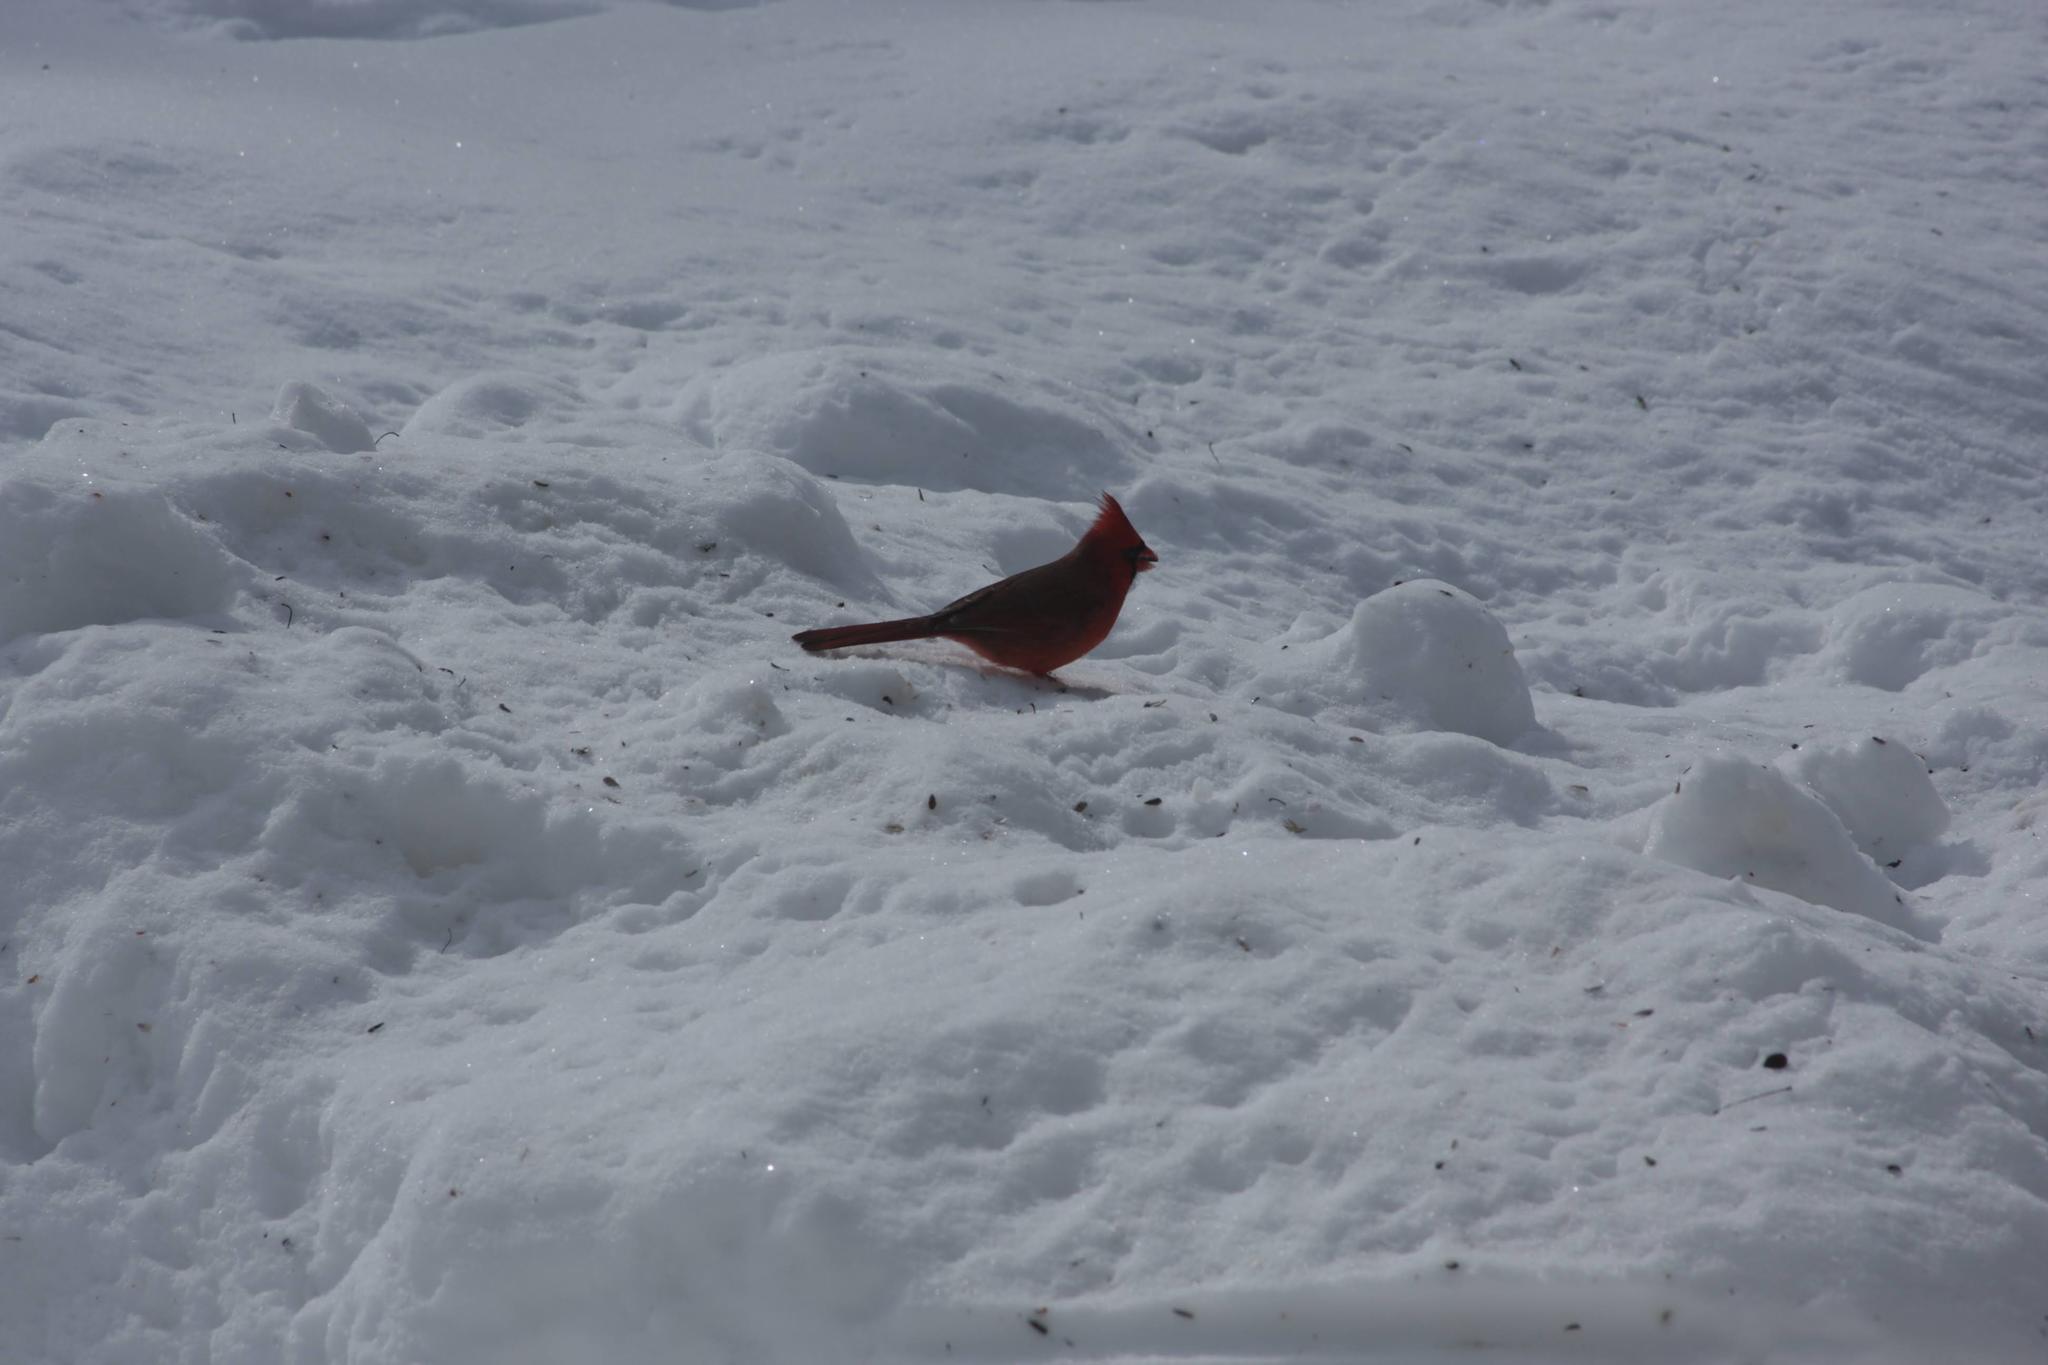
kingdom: Animalia
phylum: Chordata
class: Aves
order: Passeriformes
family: Cardinalidae
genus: Cardinalis
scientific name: Cardinalis cardinalis
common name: Northern cardinal
